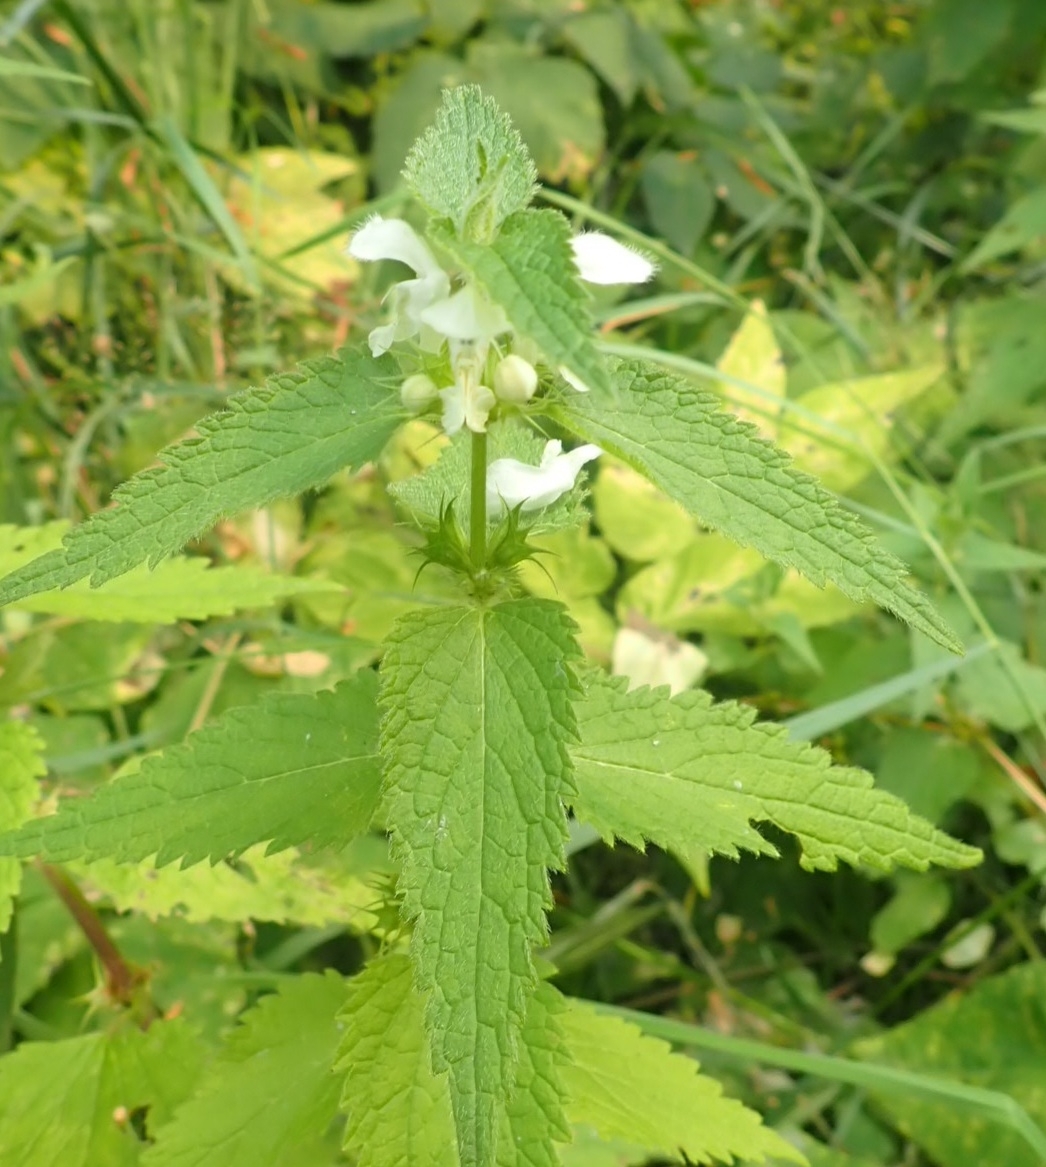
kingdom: Plantae
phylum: Tracheophyta
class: Magnoliopsida
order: Lamiales
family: Lamiaceae
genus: Lamium
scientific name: Lamium album
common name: White dead-nettle
